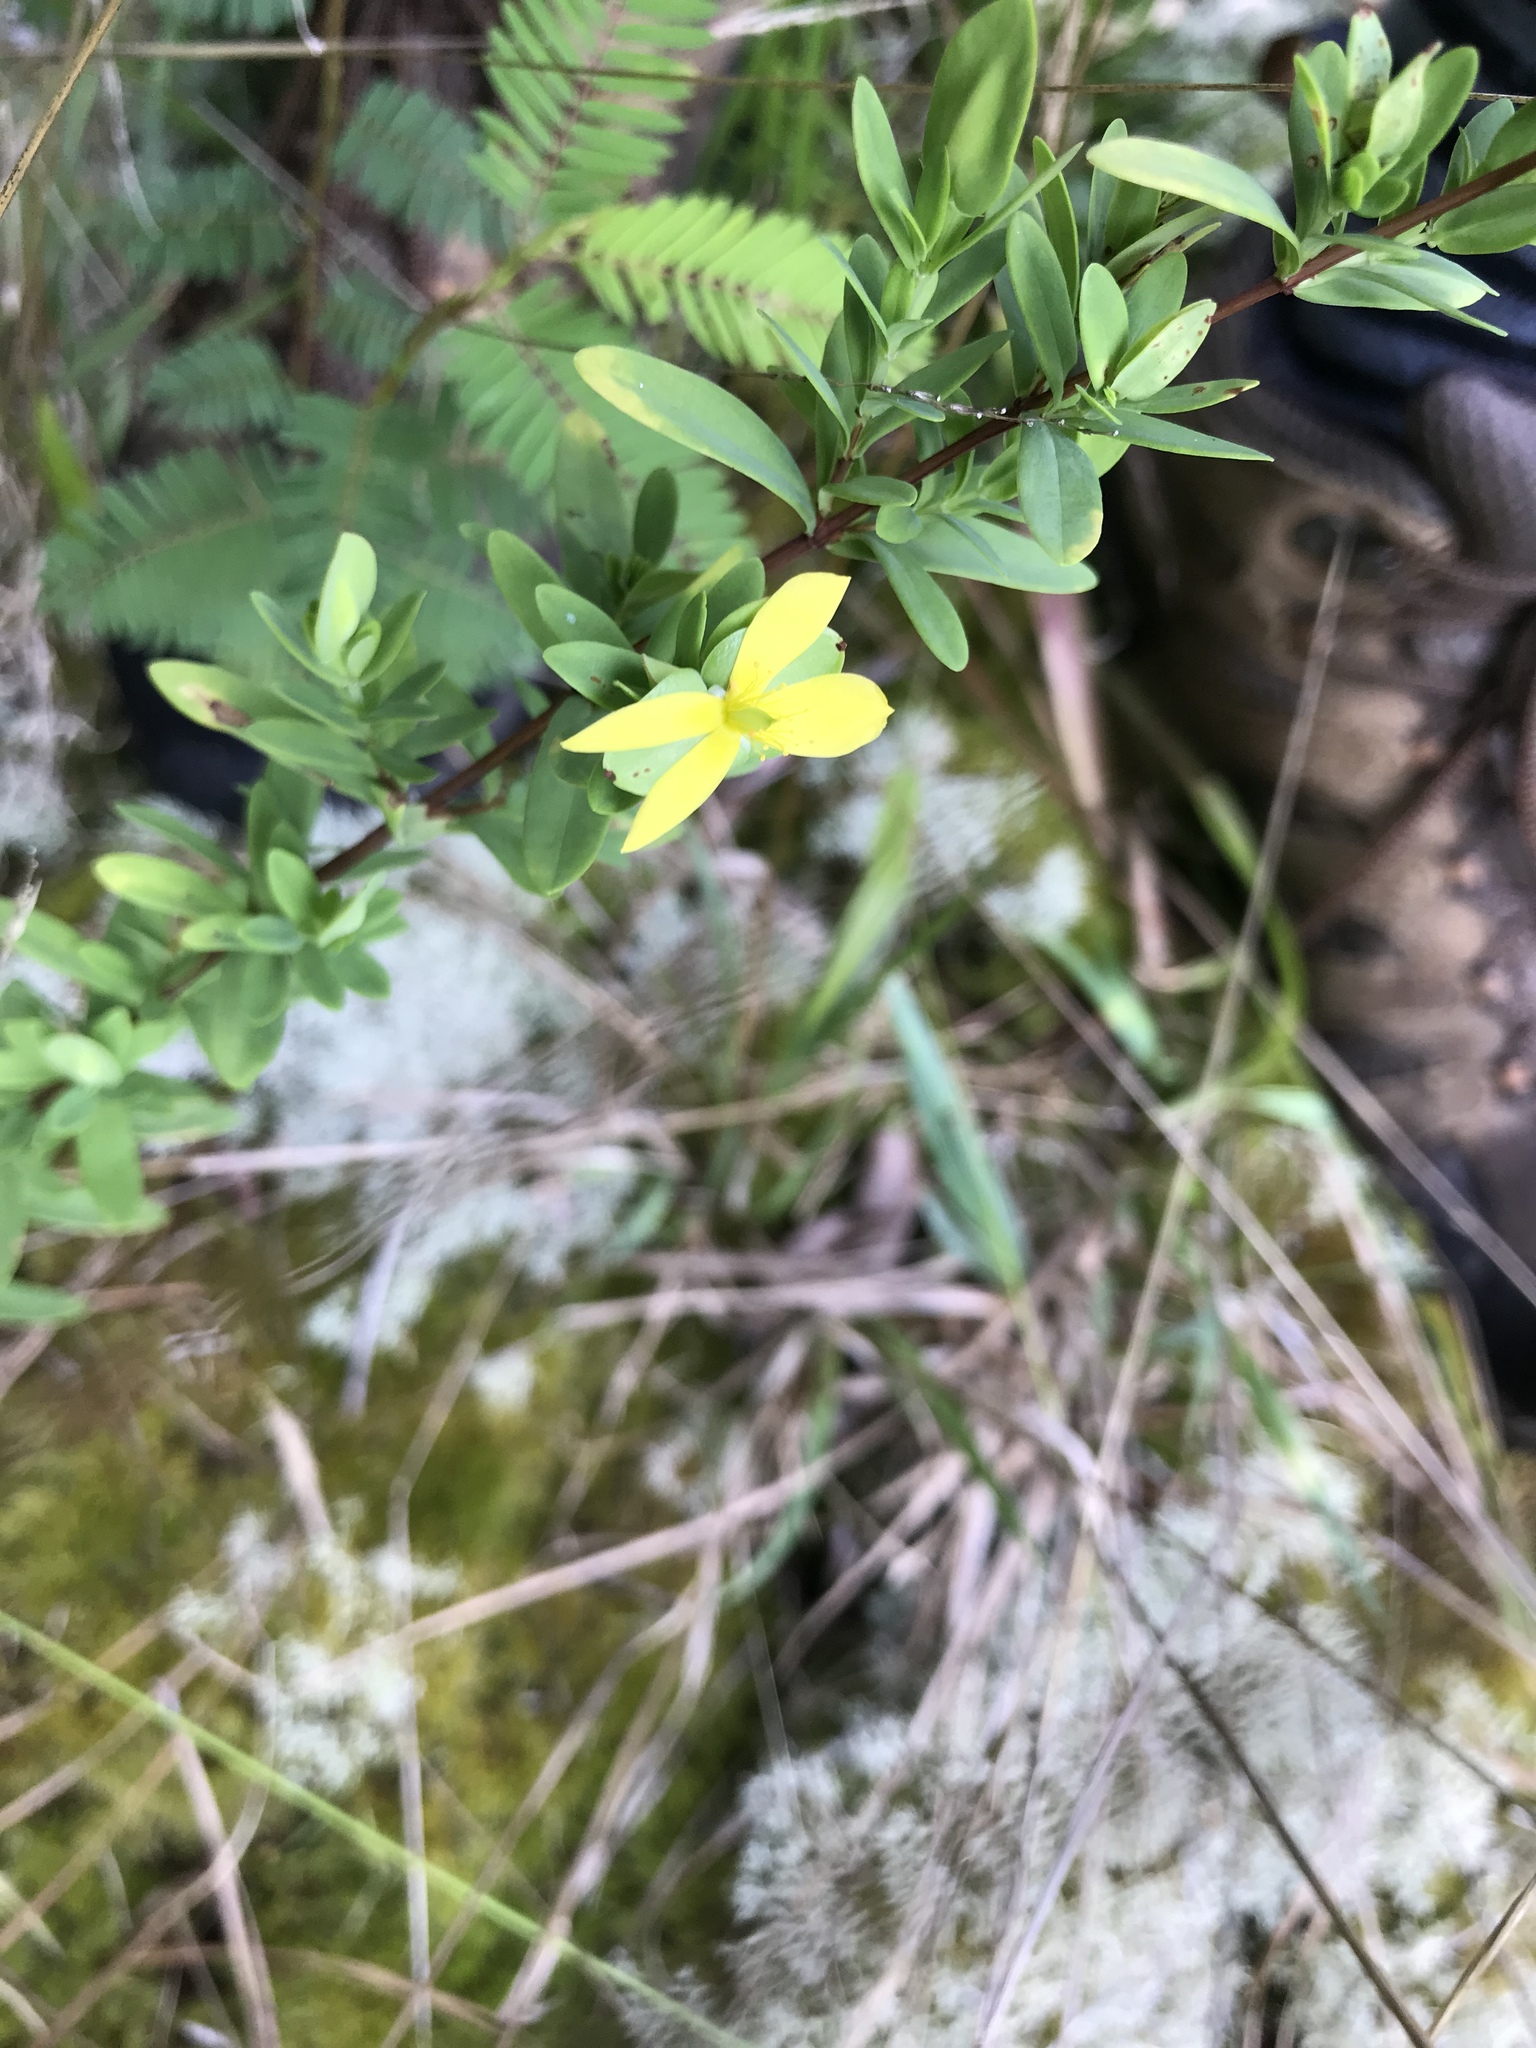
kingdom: Plantae
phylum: Tracheophyta
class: Magnoliopsida
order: Malpighiales
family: Hypericaceae
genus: Hypericum
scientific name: Hypericum hypericoides
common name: St. andrew's cross
